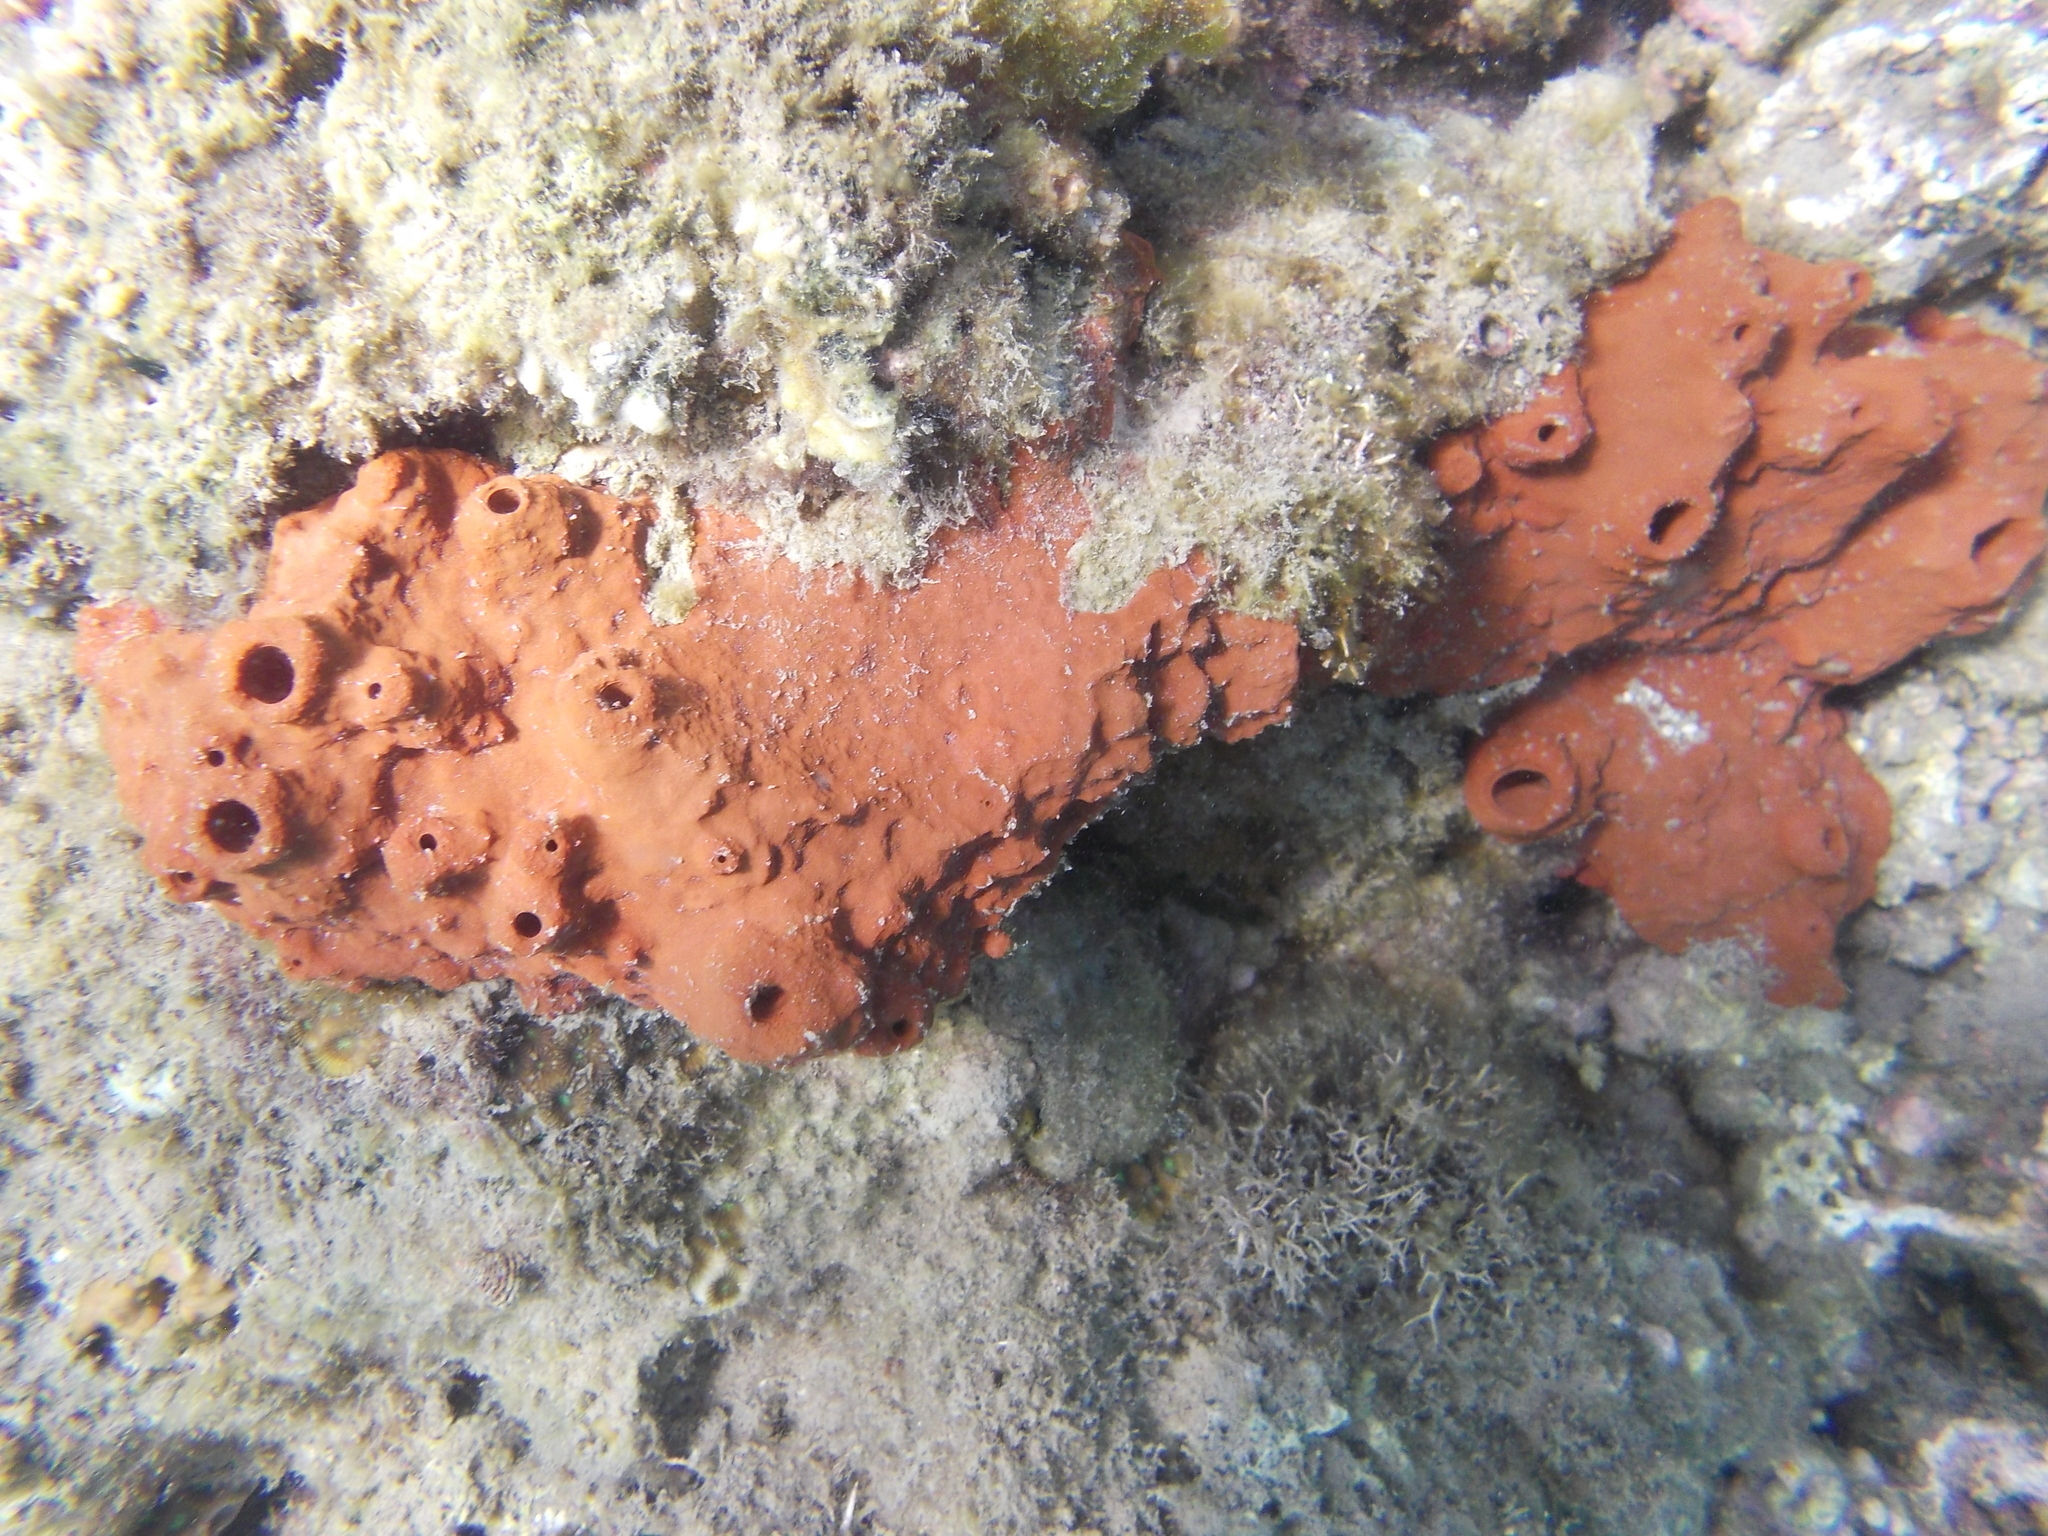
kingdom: Animalia
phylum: Porifera
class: Demospongiae
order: Haplosclerida
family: Petrosiidae
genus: Petrosia
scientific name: Petrosia plana
